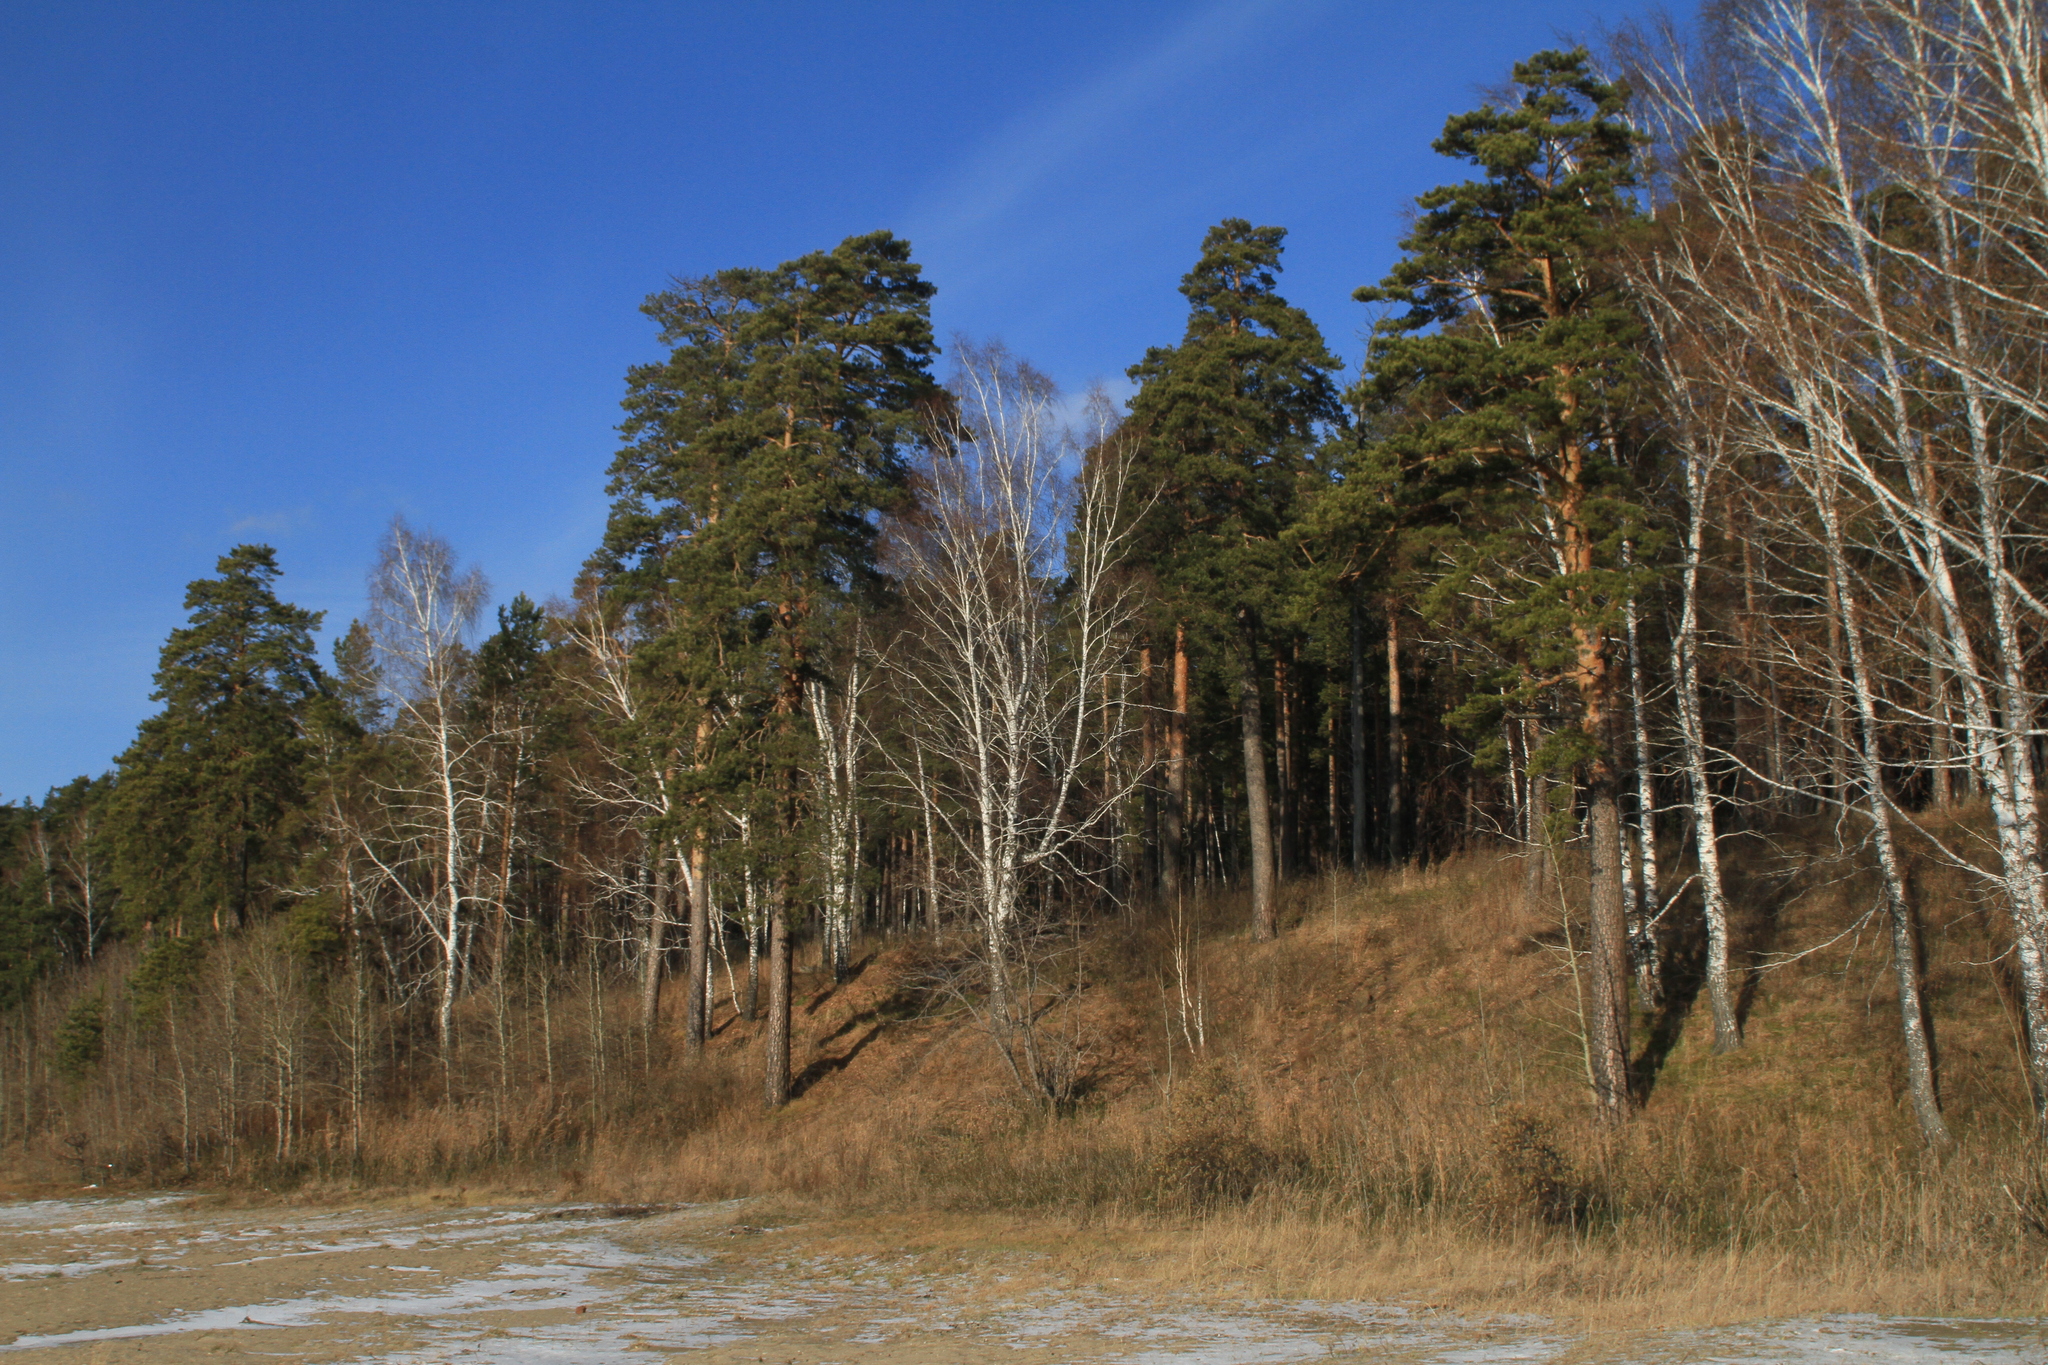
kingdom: Plantae
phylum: Tracheophyta
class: Pinopsida
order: Pinales
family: Pinaceae
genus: Pinus
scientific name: Pinus sylvestris
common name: Scots pine
